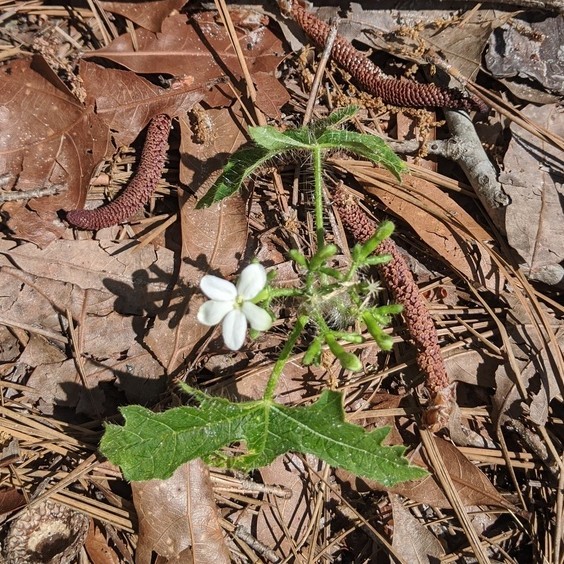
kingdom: Plantae
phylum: Tracheophyta
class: Magnoliopsida
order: Malpighiales
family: Euphorbiaceae
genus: Cnidoscolus
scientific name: Cnidoscolus stimulosus
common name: Bull-nettle
